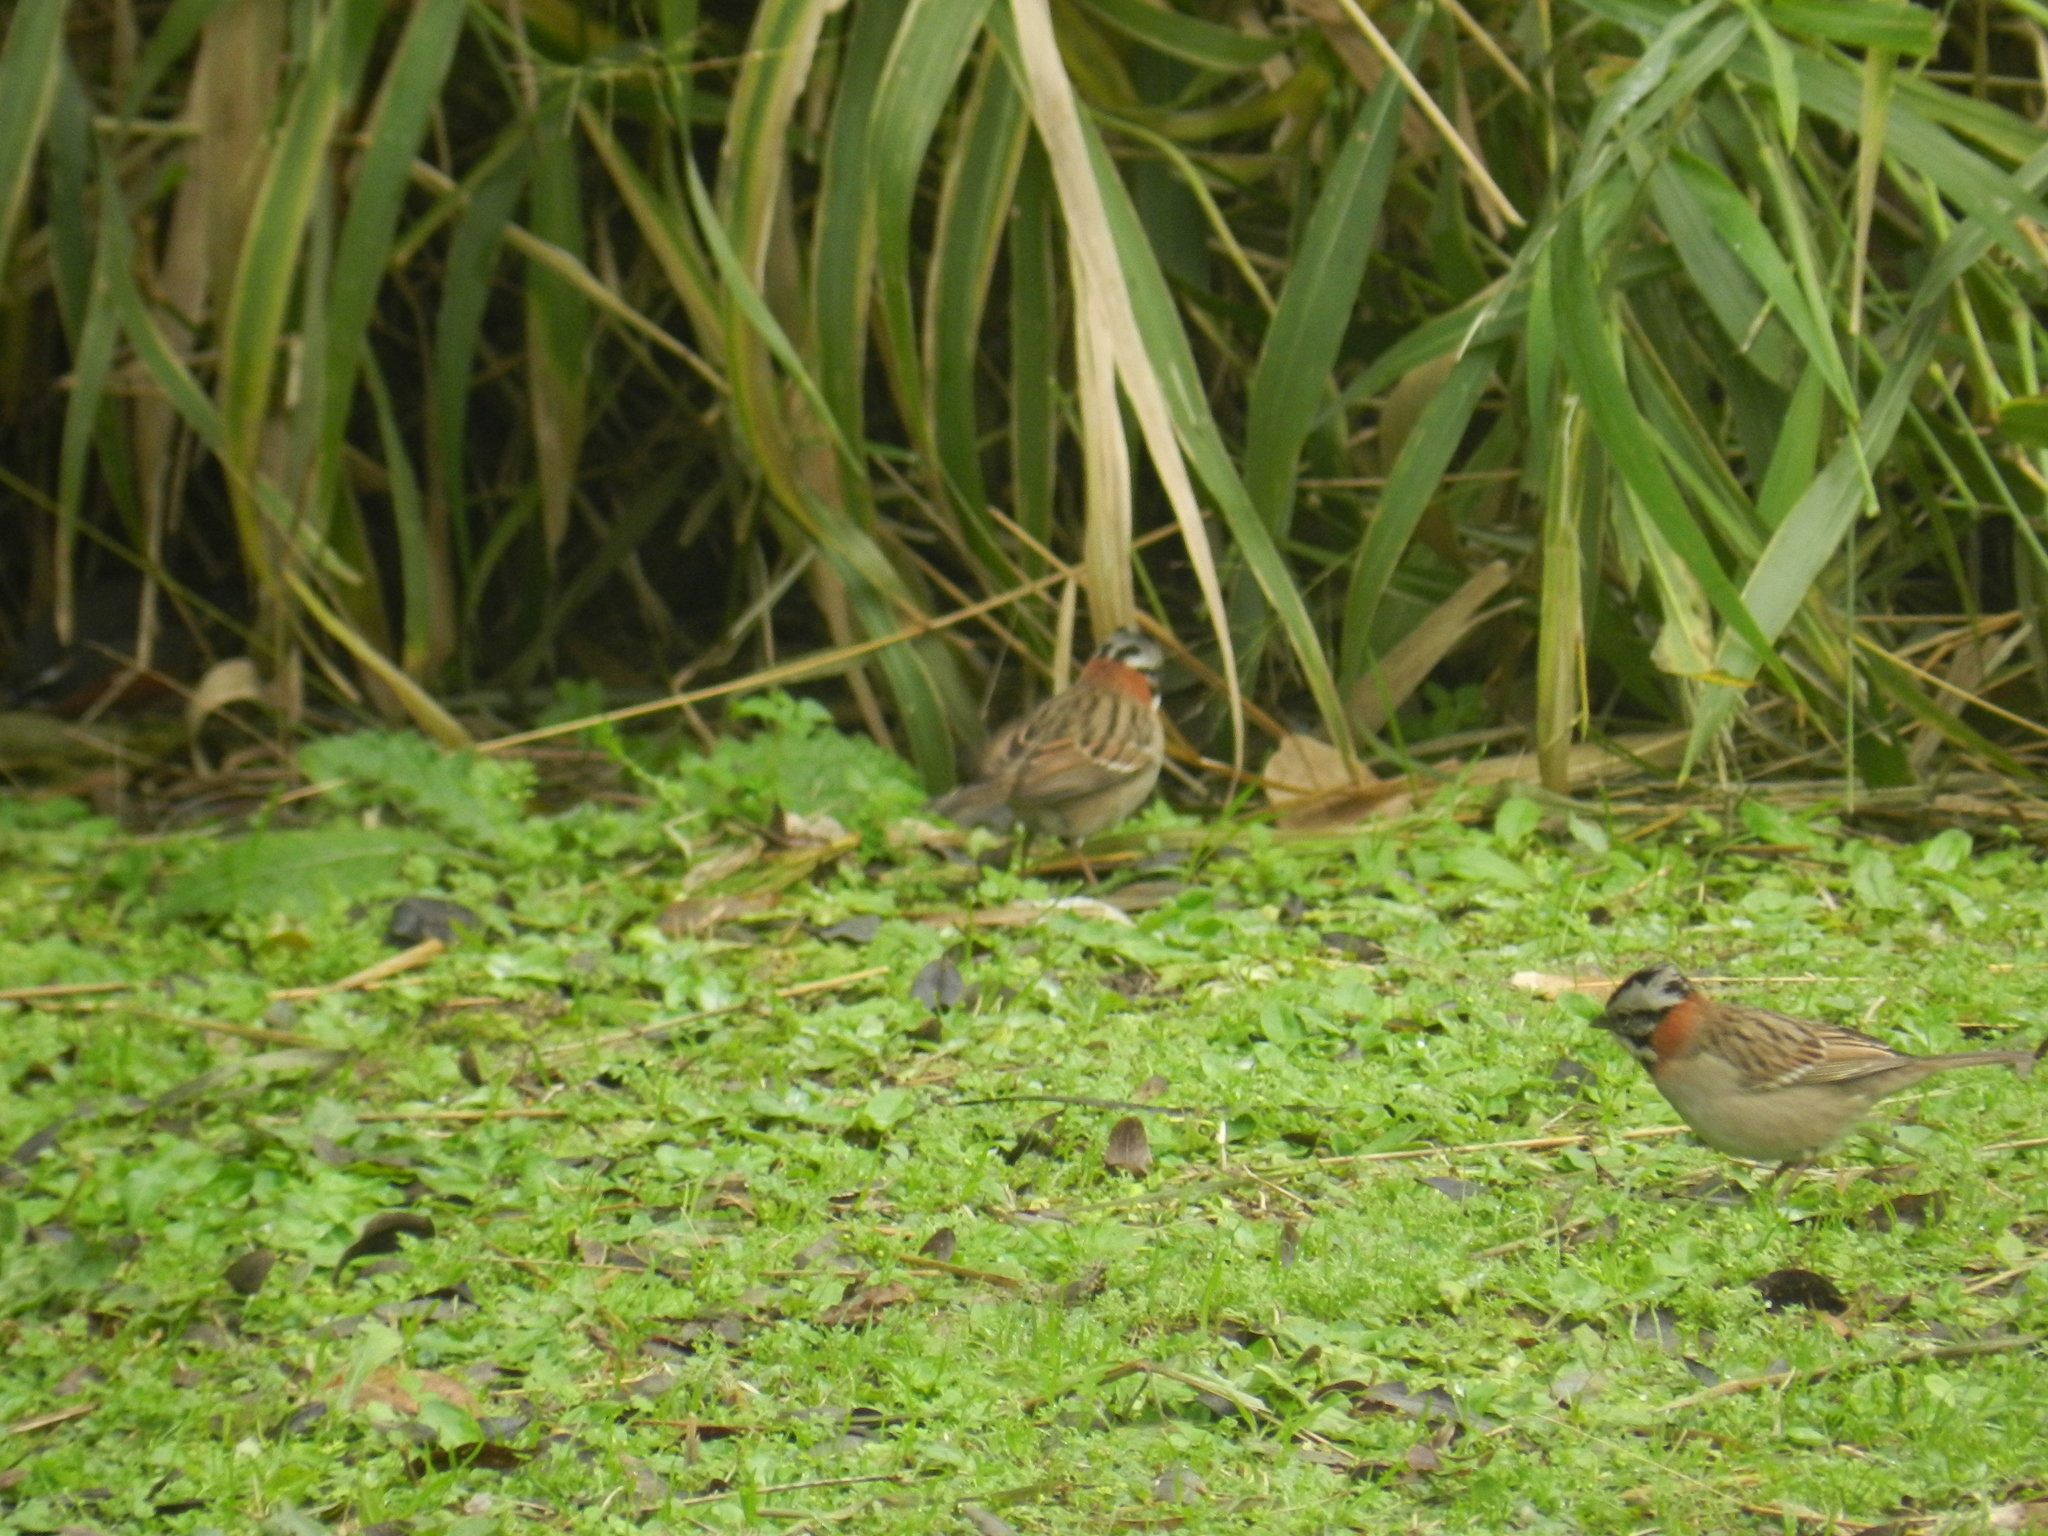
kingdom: Animalia
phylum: Chordata
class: Aves
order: Passeriformes
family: Passerellidae
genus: Zonotrichia
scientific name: Zonotrichia capensis
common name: Rufous-collared sparrow
